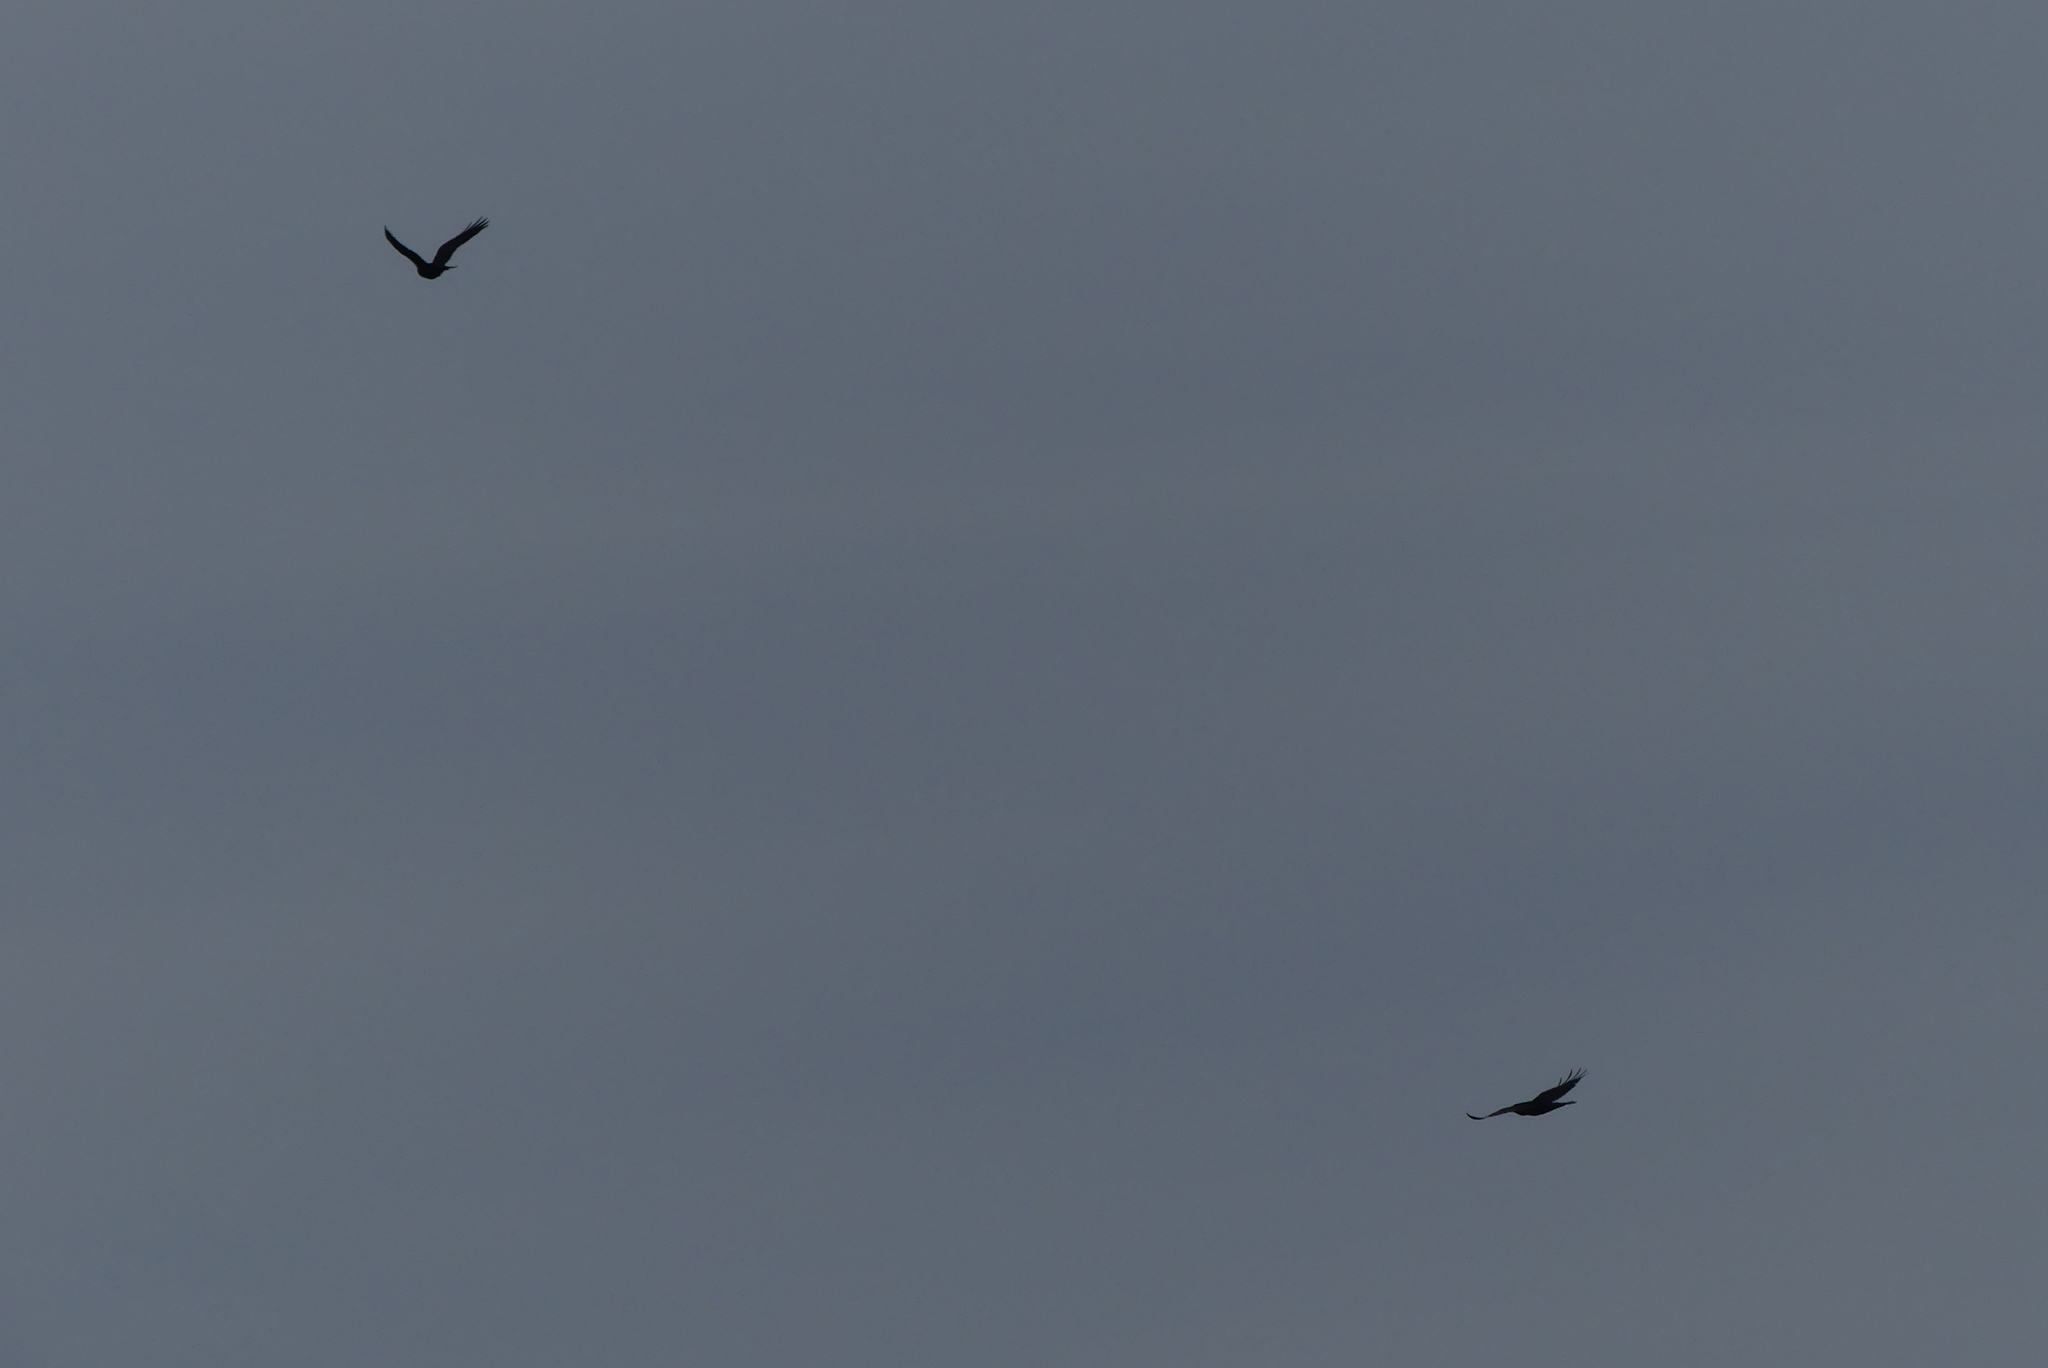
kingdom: Animalia
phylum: Chordata
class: Aves
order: Passeriformes
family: Corvidae
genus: Corvus
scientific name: Corvus corax
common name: Common raven
